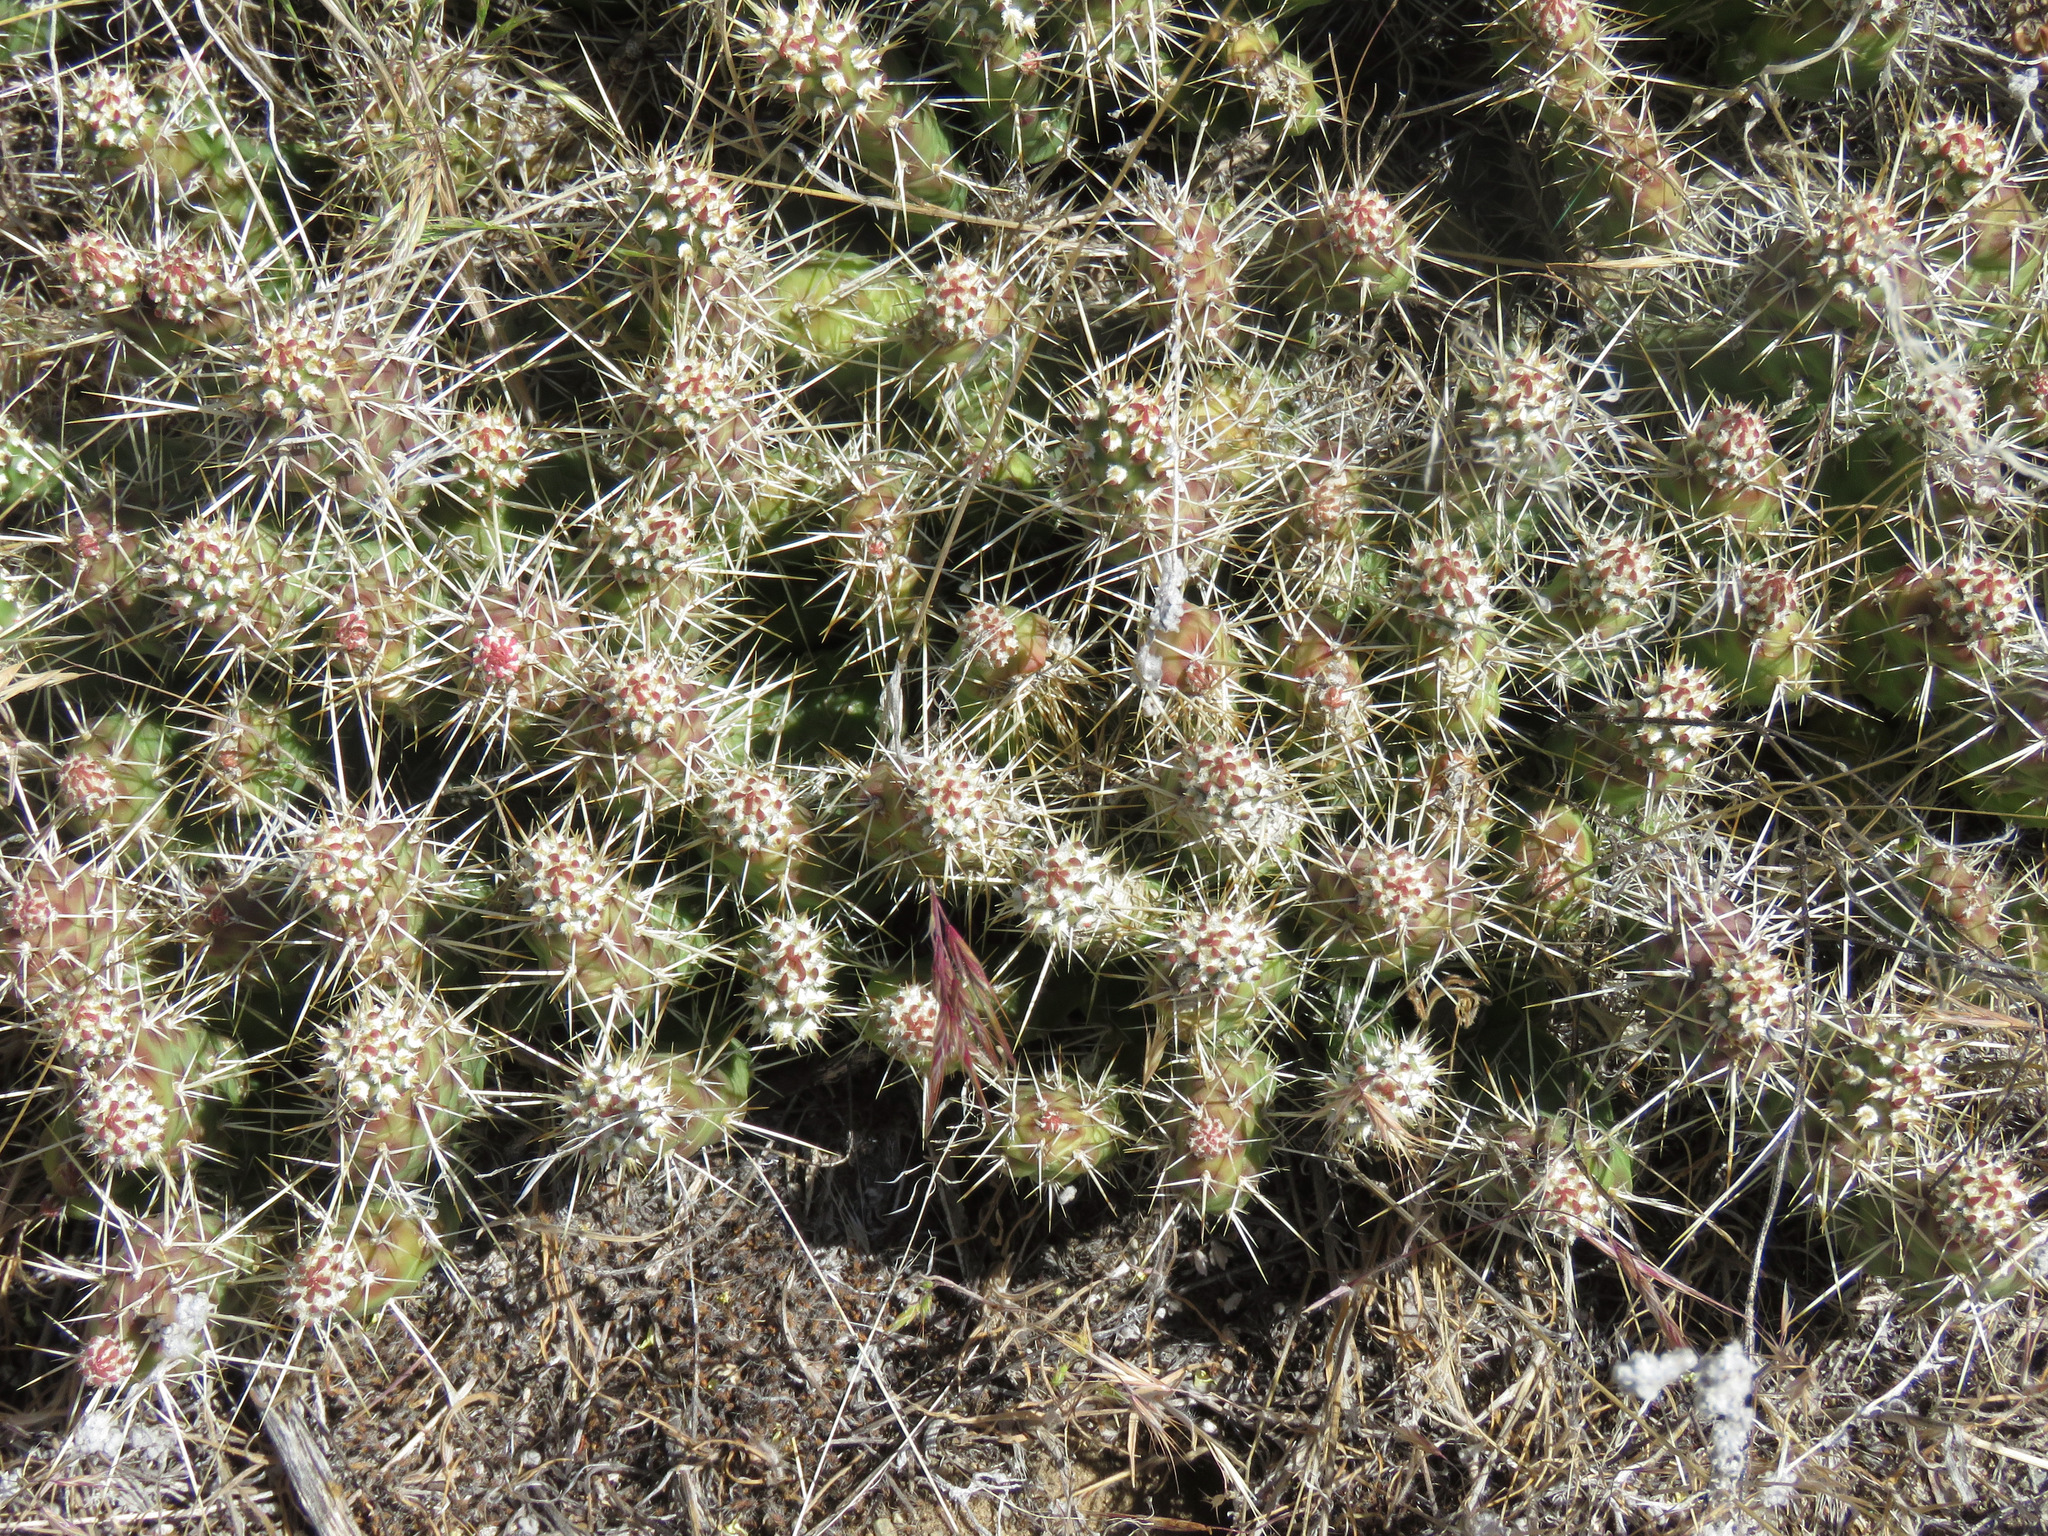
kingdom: Plantae
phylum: Tracheophyta
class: Magnoliopsida
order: Caryophyllales
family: Cactaceae
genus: Opuntia
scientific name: Opuntia fragilis
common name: Brittle cactus
